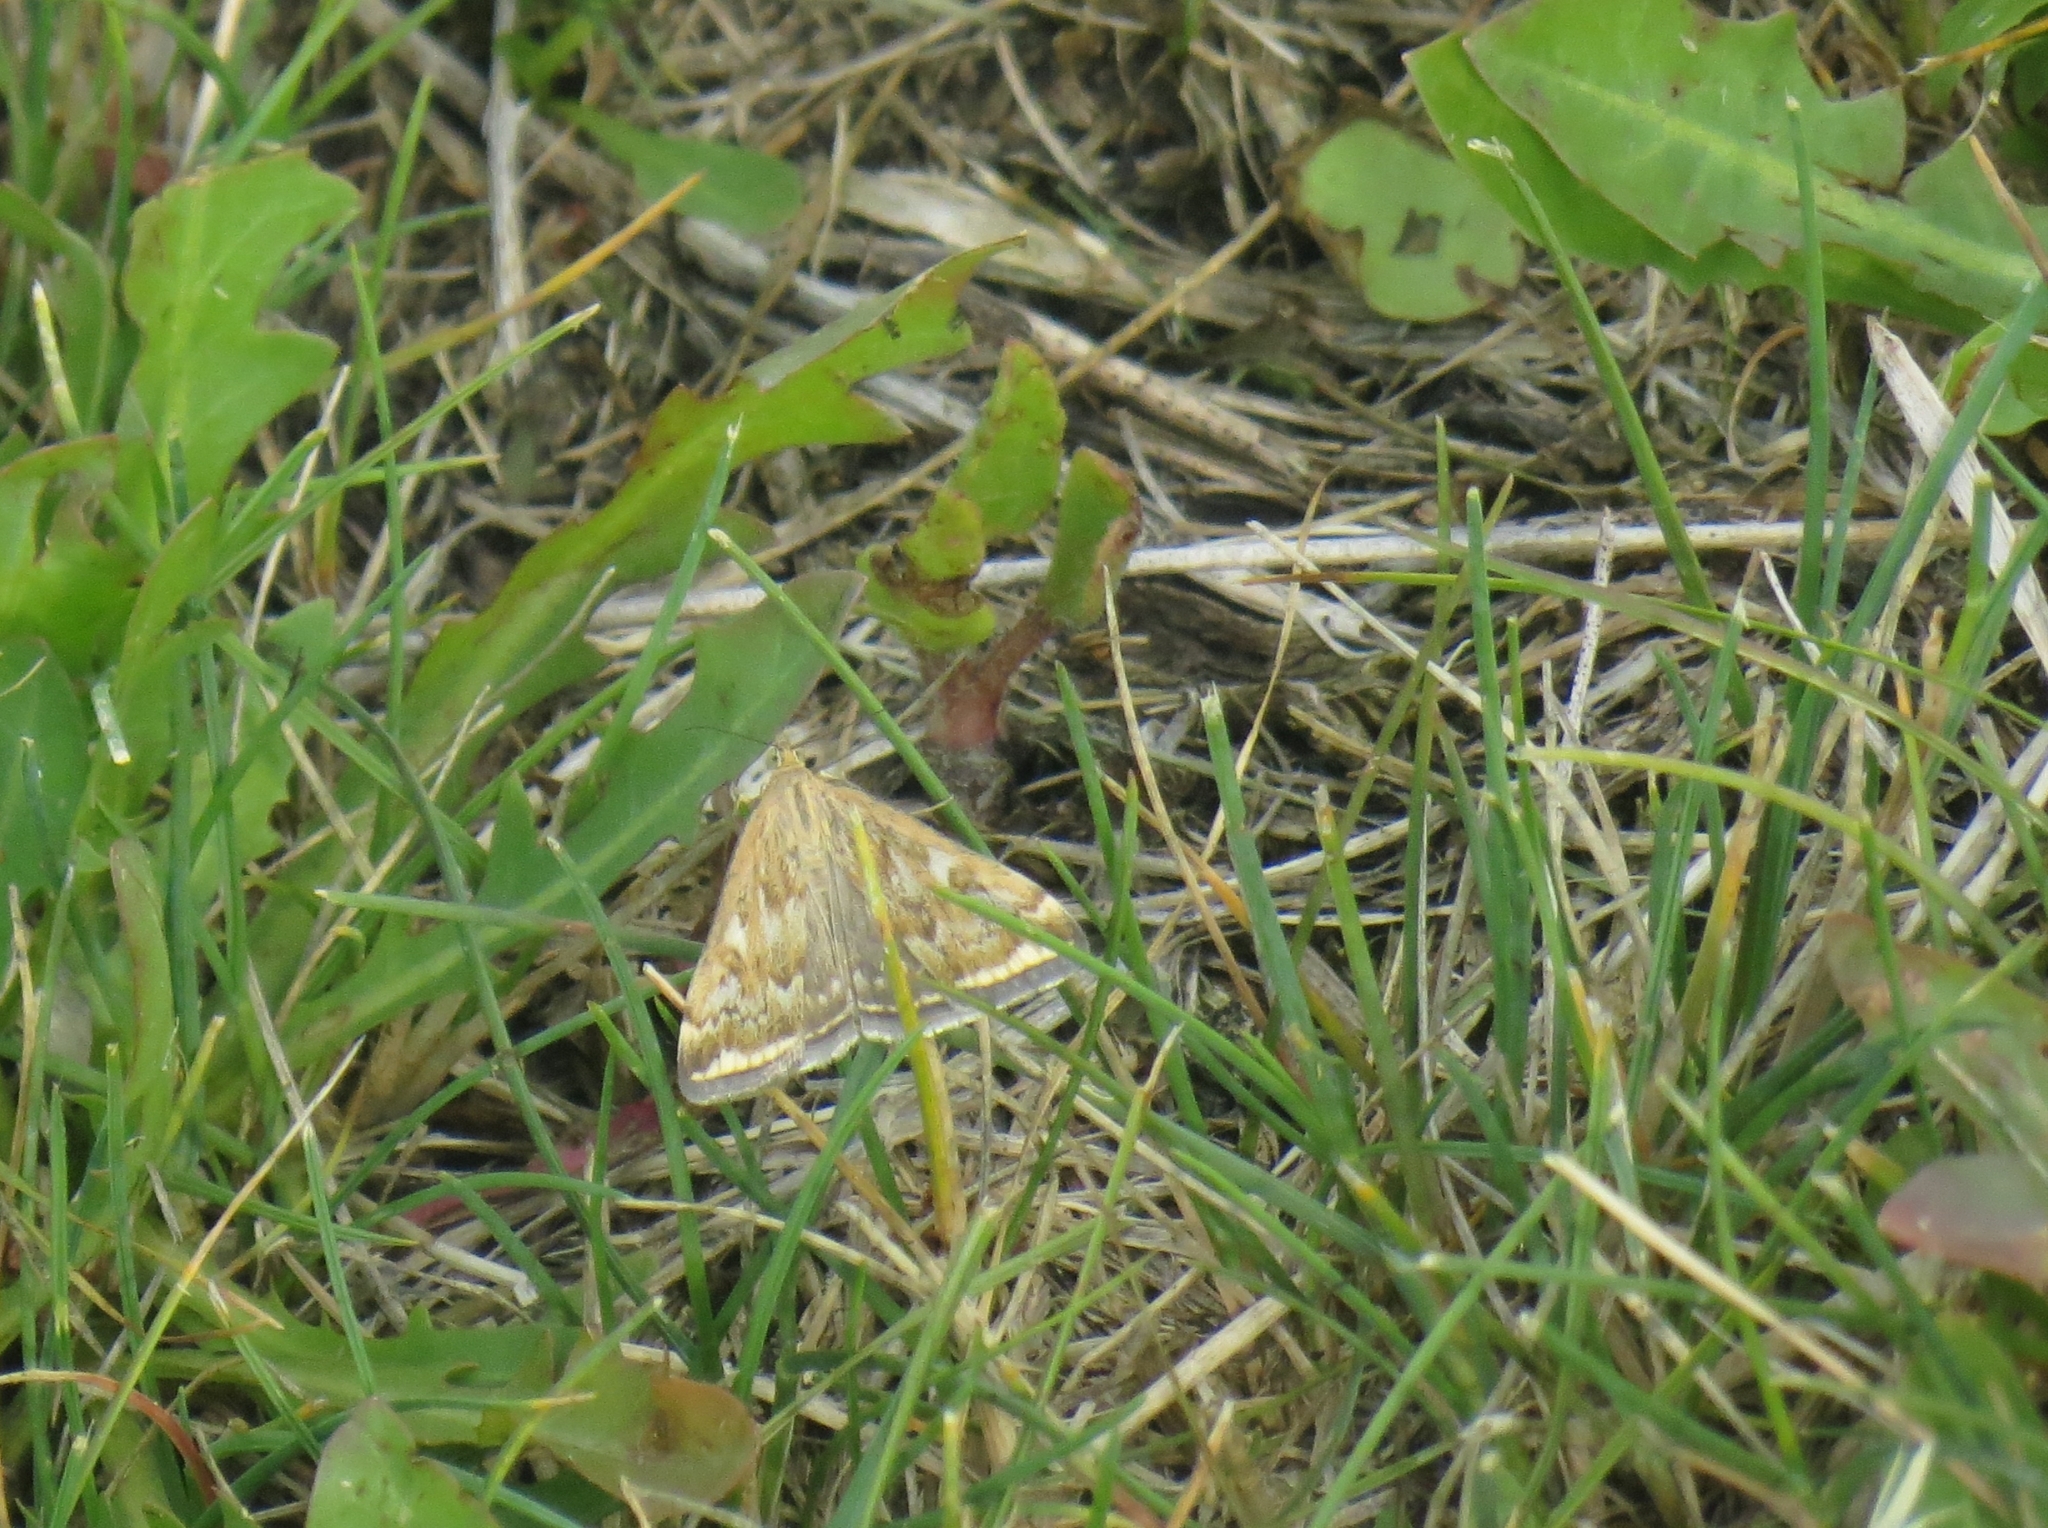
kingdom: Animalia
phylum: Arthropoda
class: Insecta
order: Lepidoptera
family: Crambidae
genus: Loxostege
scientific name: Loxostege sticticalis
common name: Crambid moth
